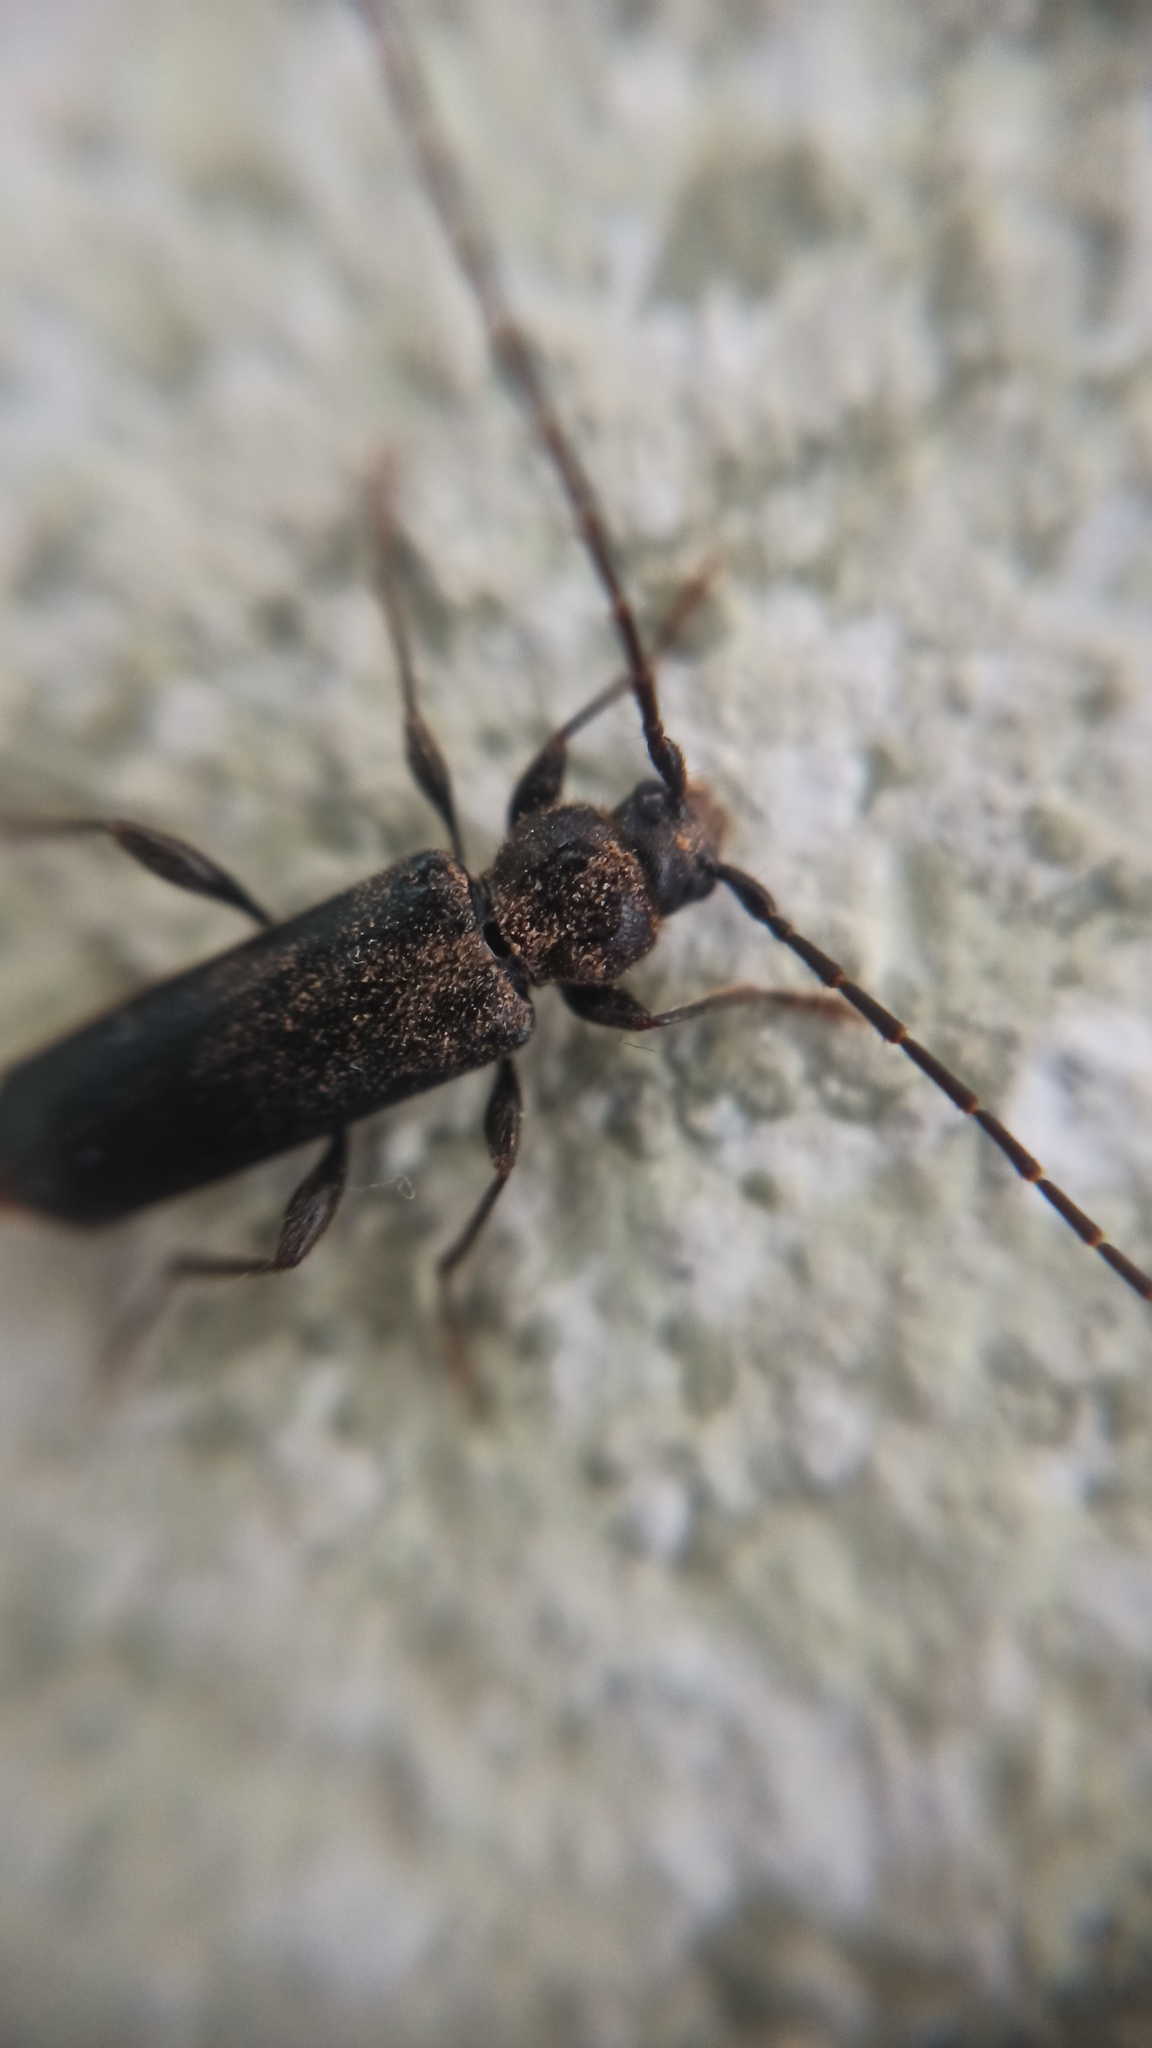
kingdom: Animalia
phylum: Arthropoda
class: Insecta
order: Coleoptera
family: Cerambycidae
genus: Phymatodes
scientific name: Phymatodes testaceus
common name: Long-horned beetle
